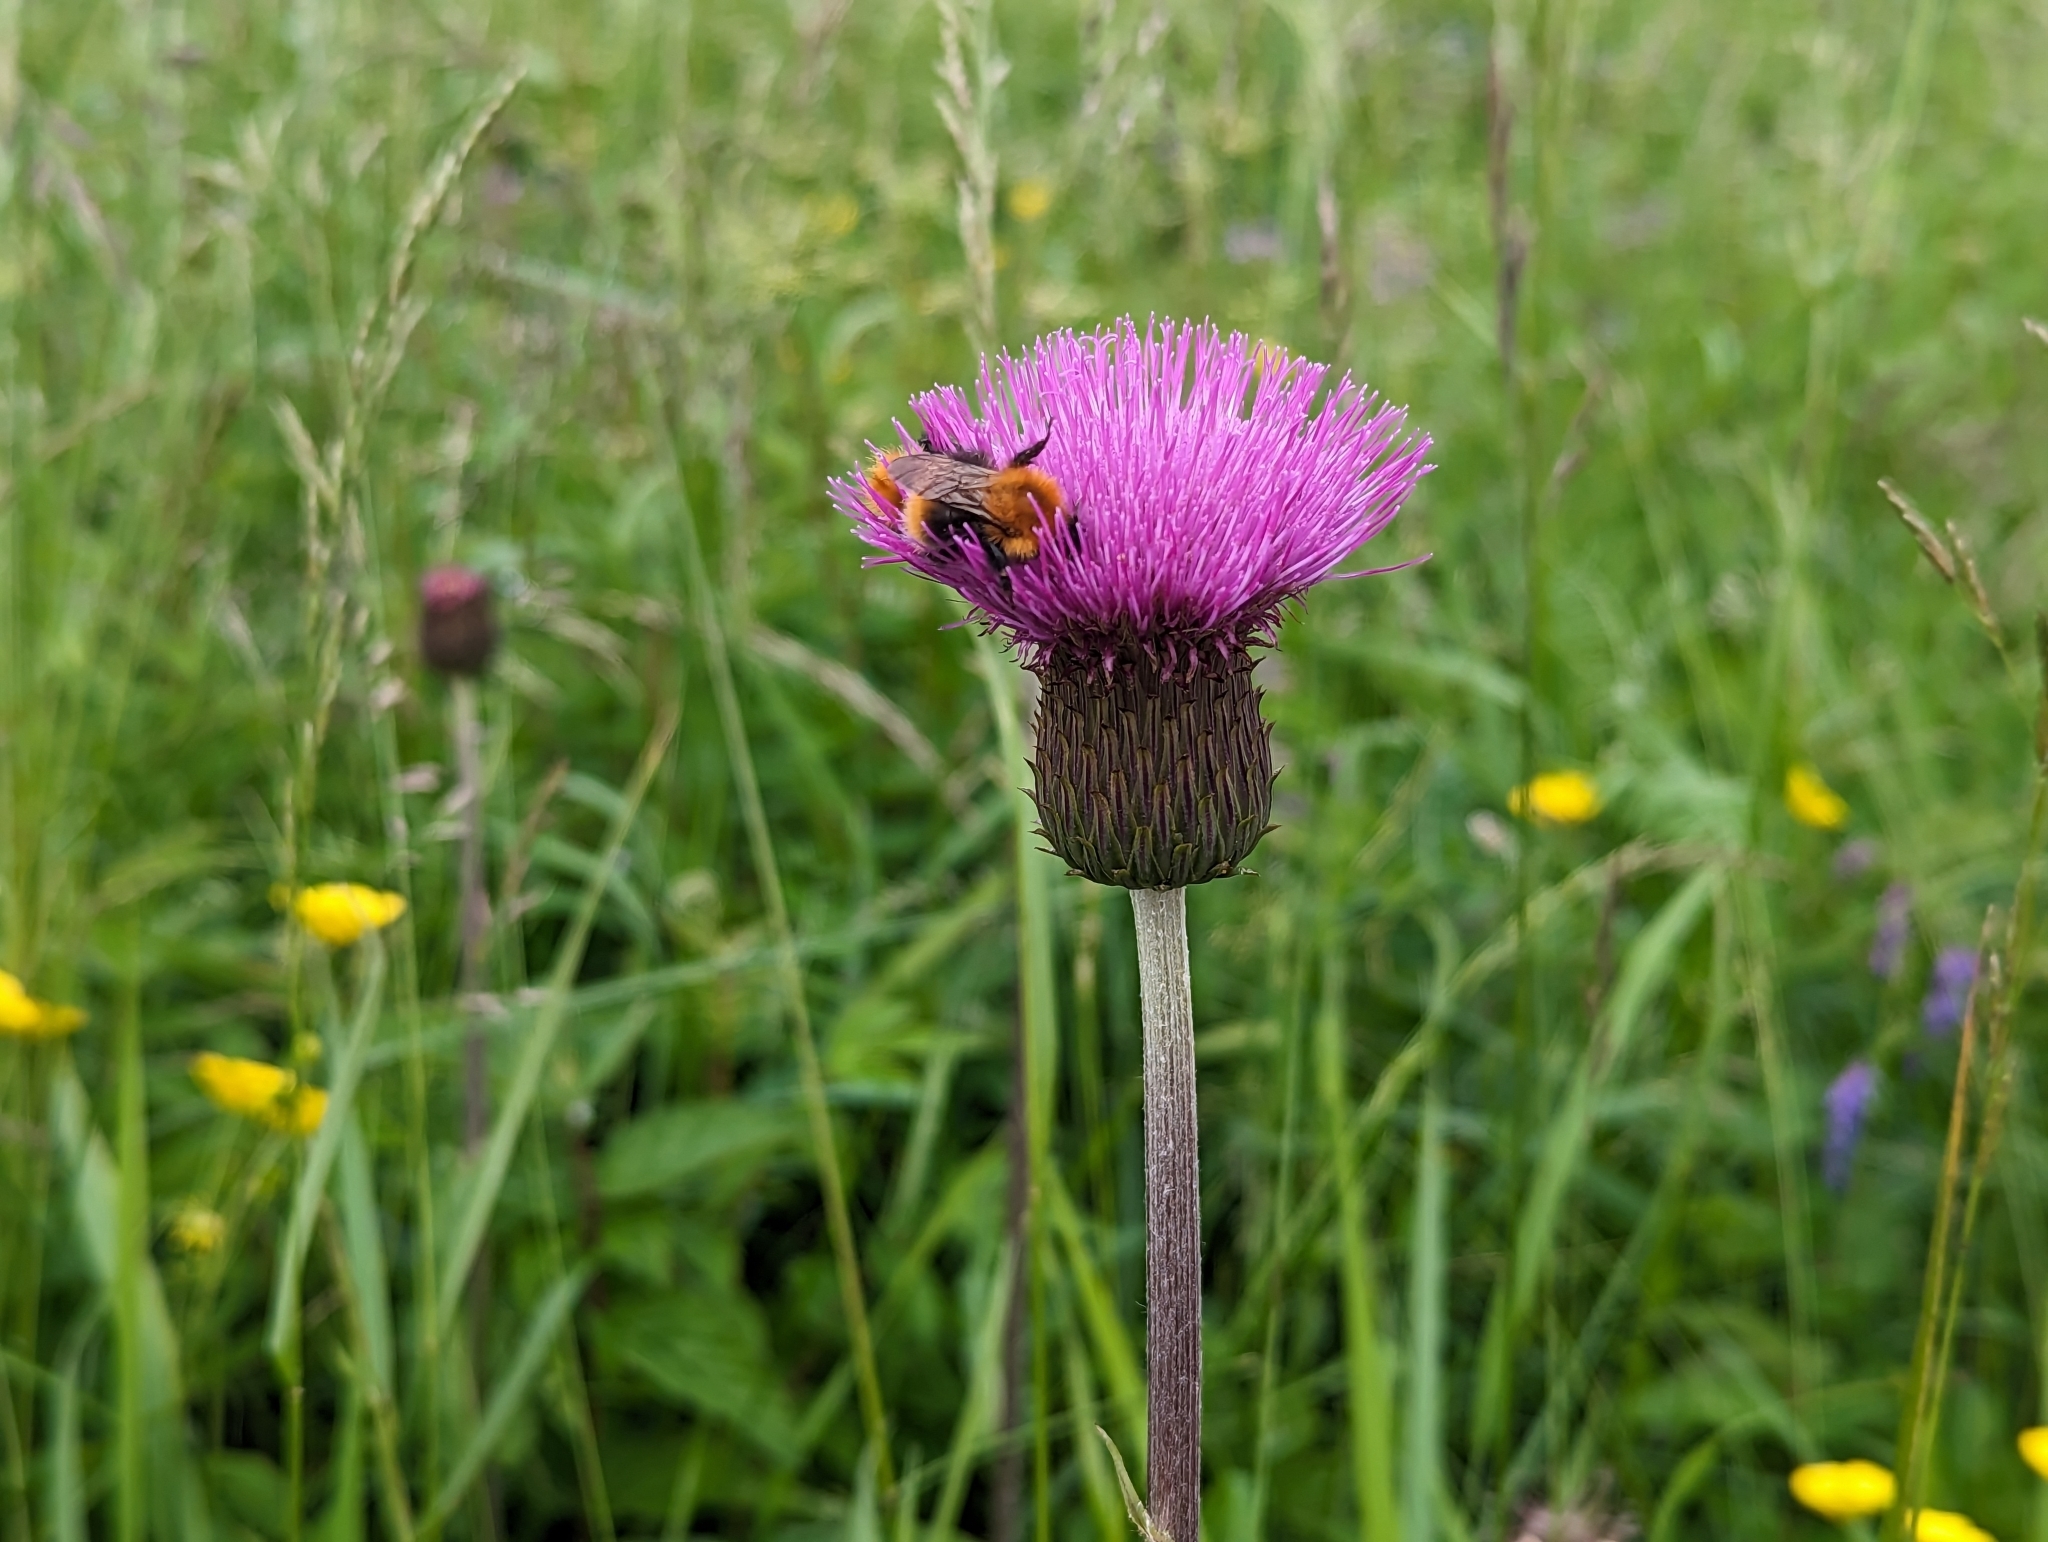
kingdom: Plantae
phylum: Tracheophyta
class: Magnoliopsida
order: Asterales
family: Asteraceae
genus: Cirsium
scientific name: Cirsium heterophyllum
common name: Melancholy thistle
